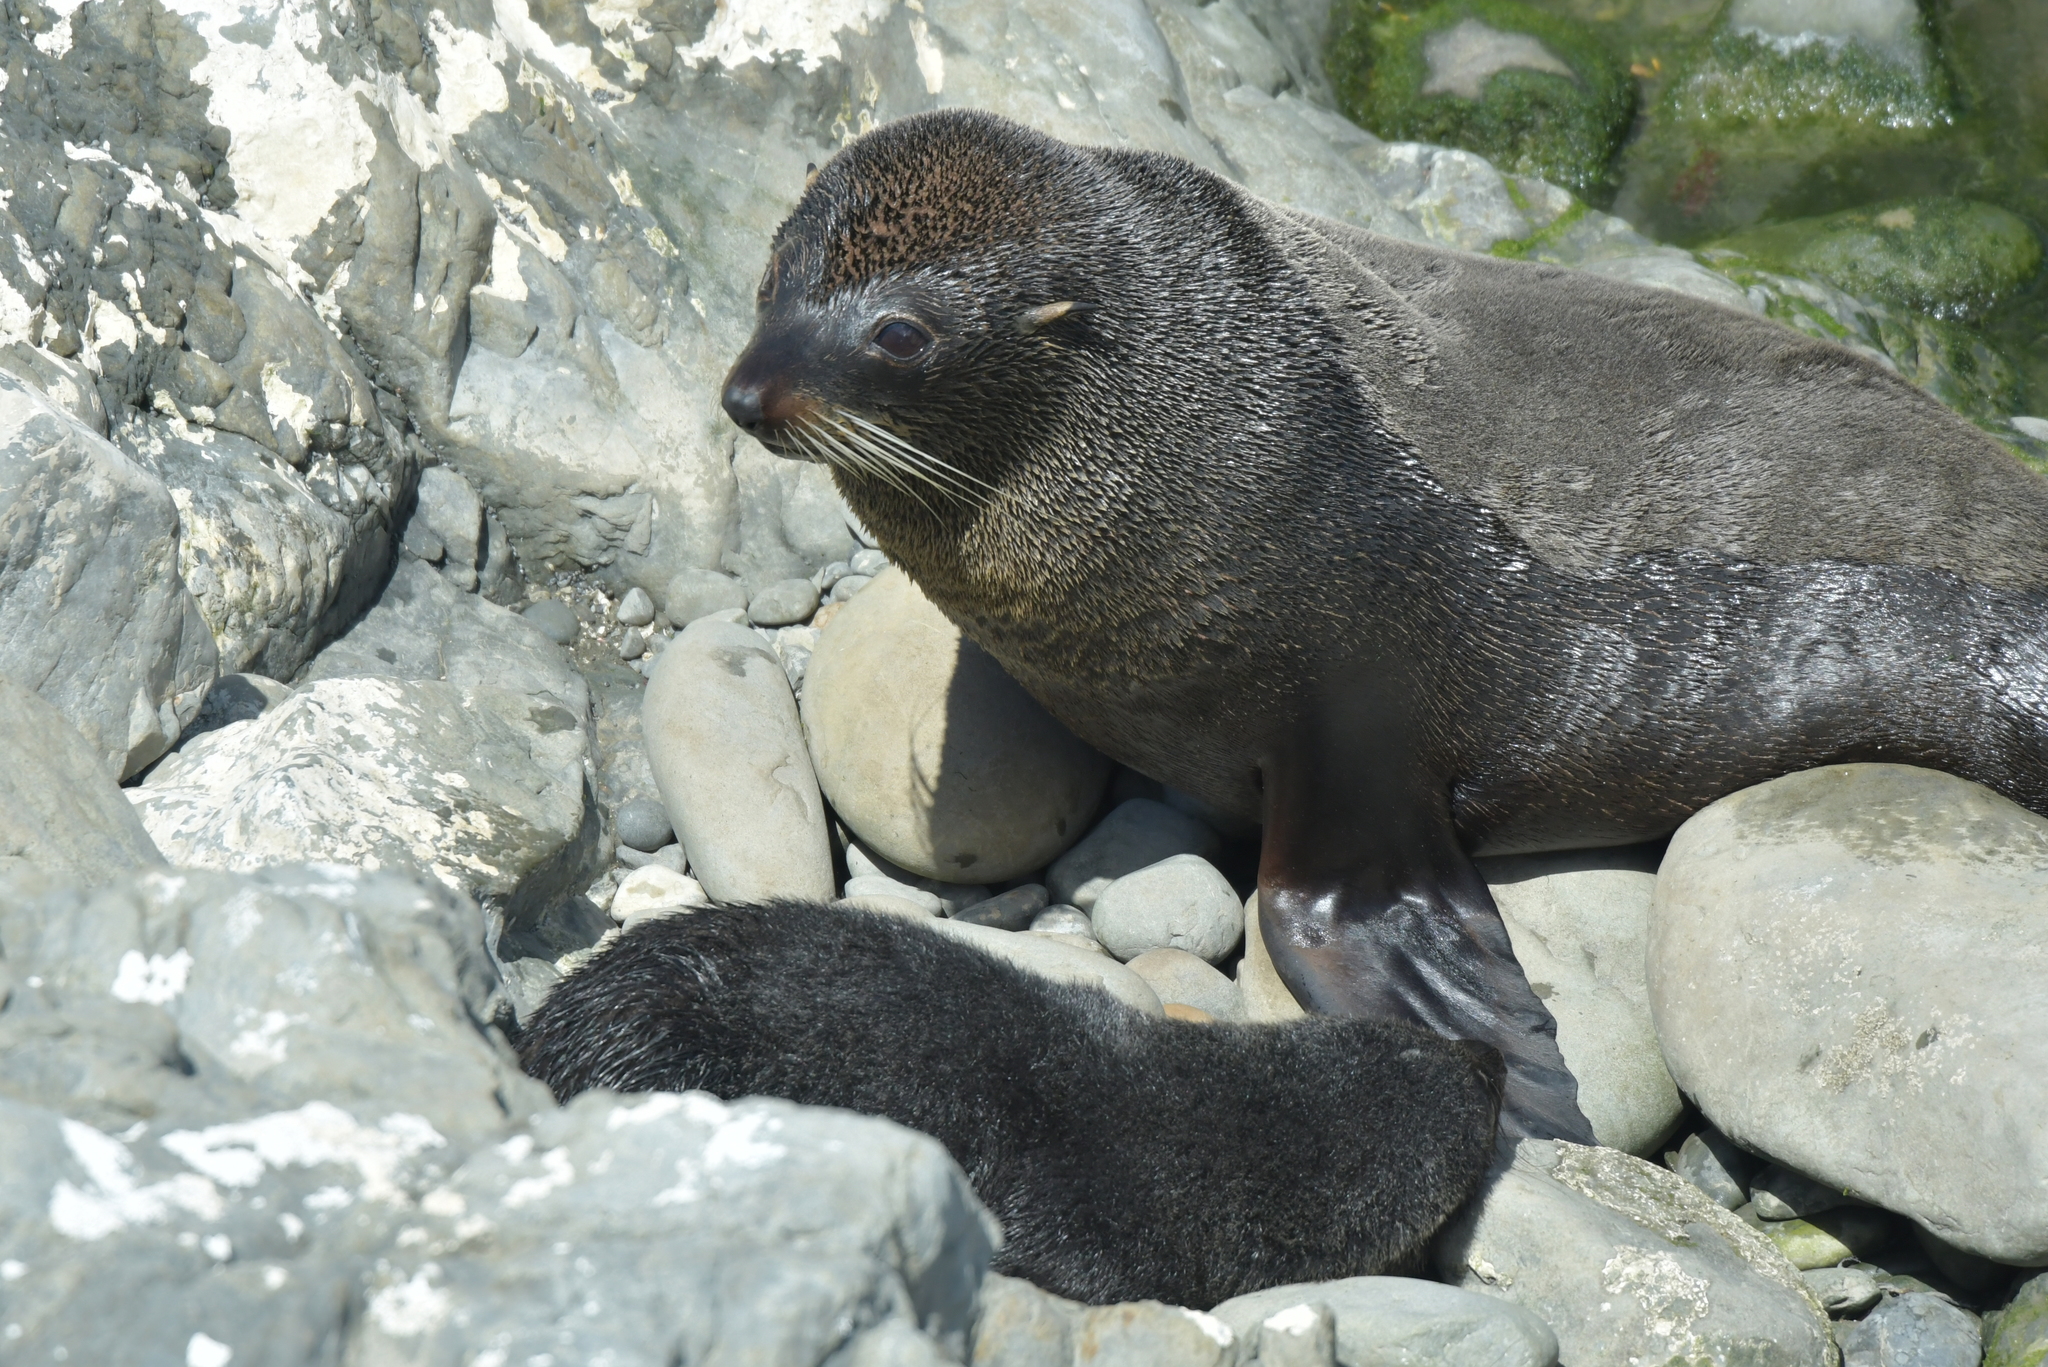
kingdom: Animalia
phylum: Chordata
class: Mammalia
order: Carnivora
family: Otariidae
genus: Arctocephalus
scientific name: Arctocephalus forsteri
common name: New zealand fur seal
